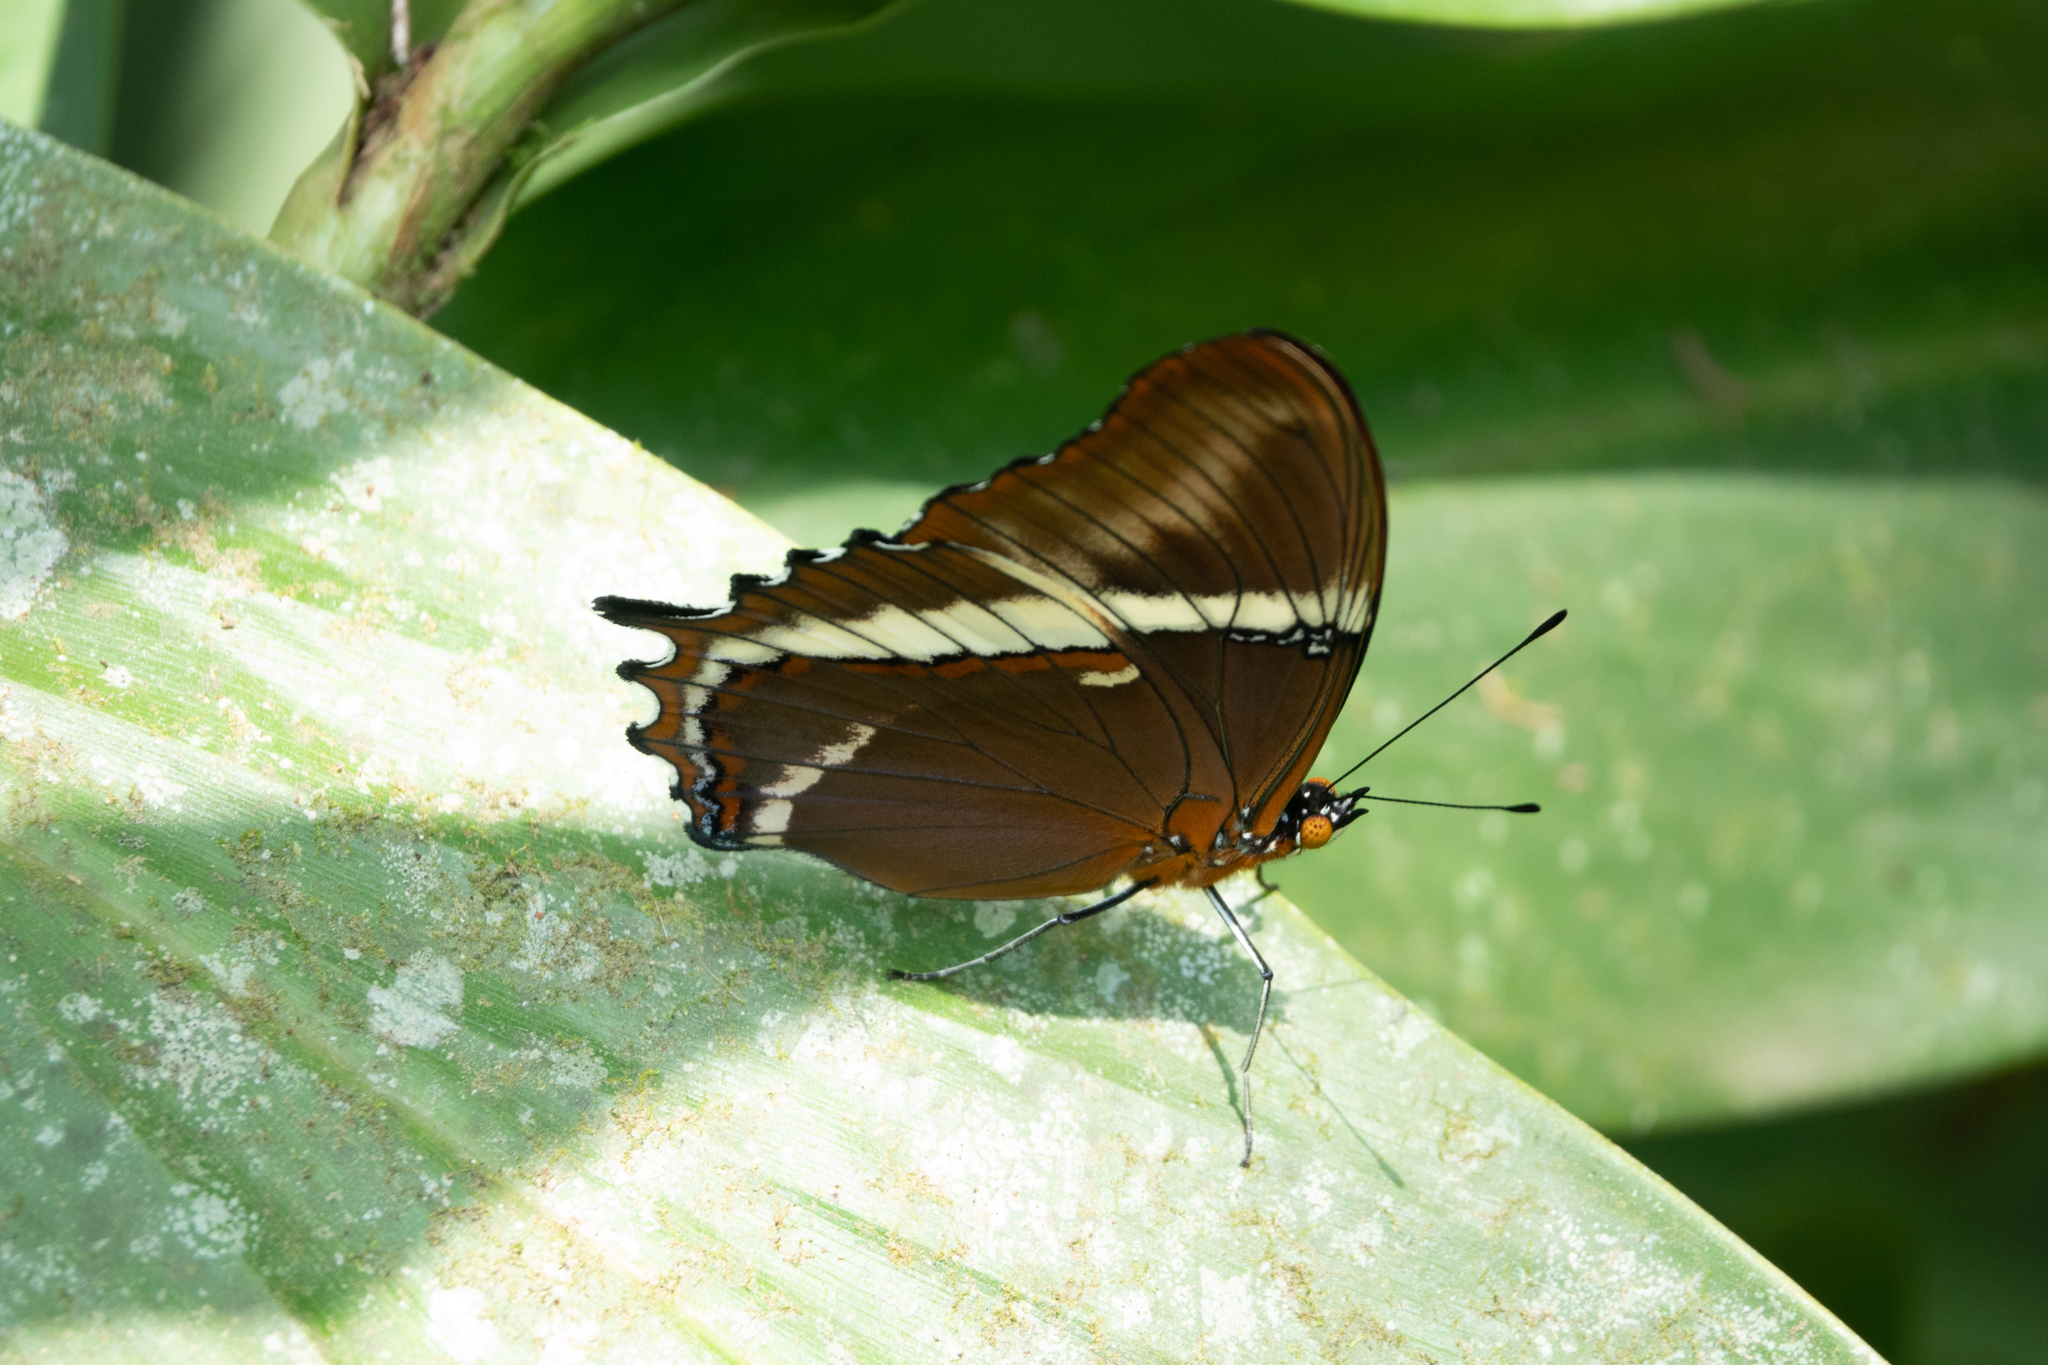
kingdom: Animalia
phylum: Arthropoda
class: Insecta
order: Lepidoptera
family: Nymphalidae
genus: Siproeta
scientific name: Siproeta epaphus
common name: Rusty-tipped page
